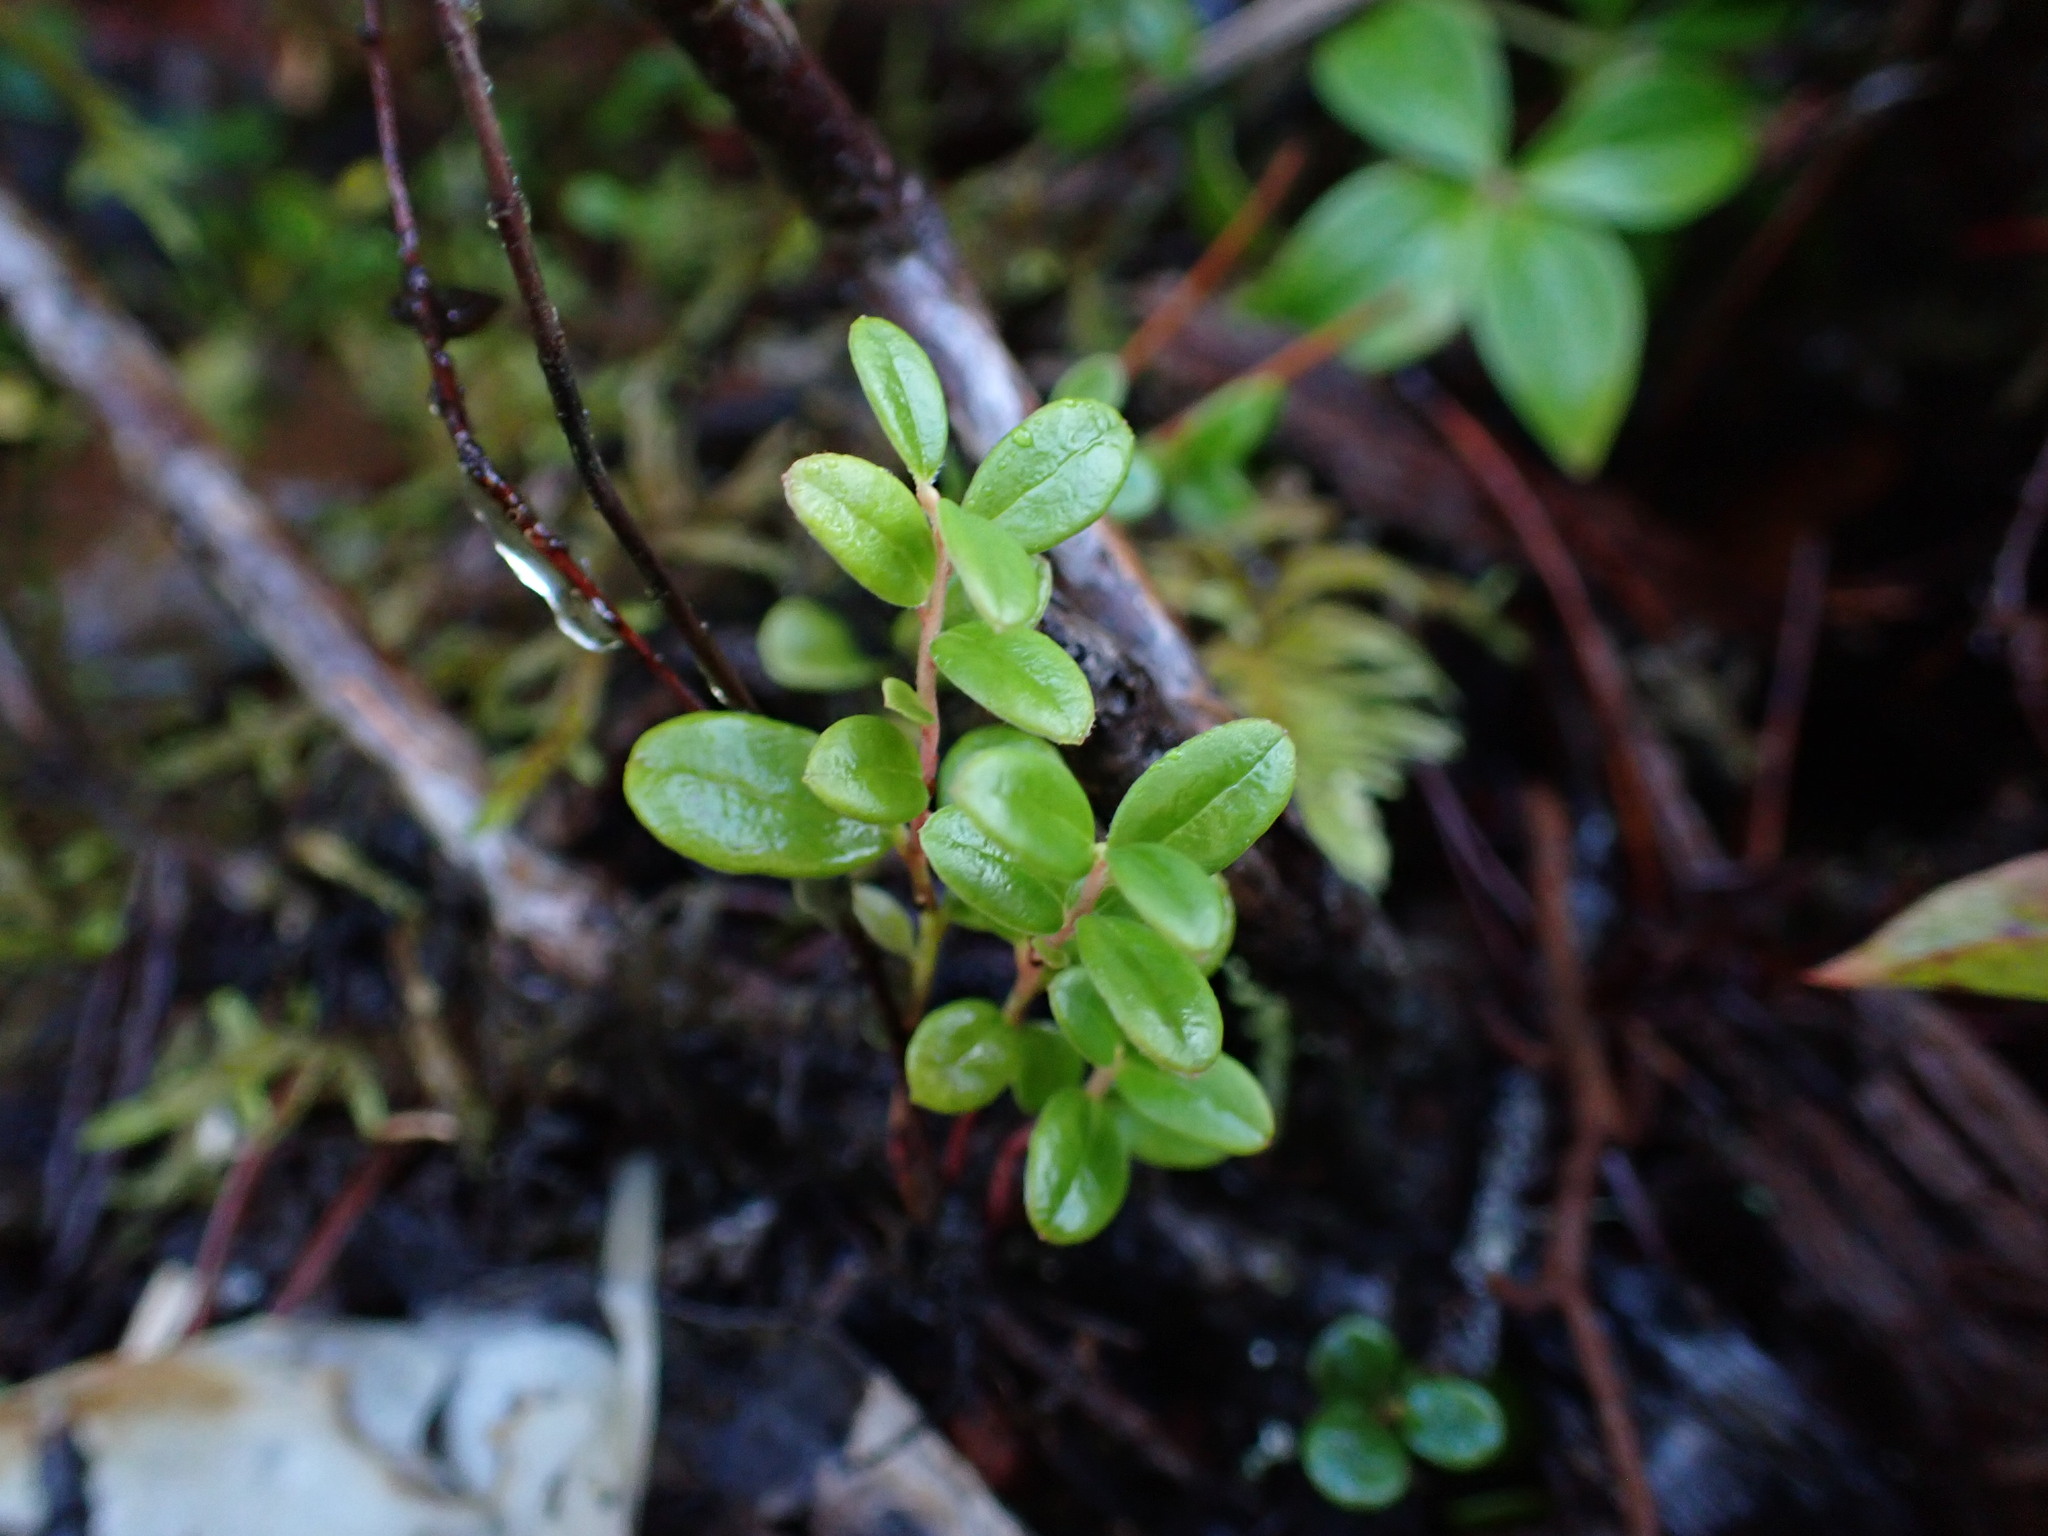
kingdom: Plantae
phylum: Tracheophyta
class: Magnoliopsida
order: Ericales
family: Ericaceae
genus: Vaccinium
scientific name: Vaccinium vitis-idaea
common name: Cowberry
